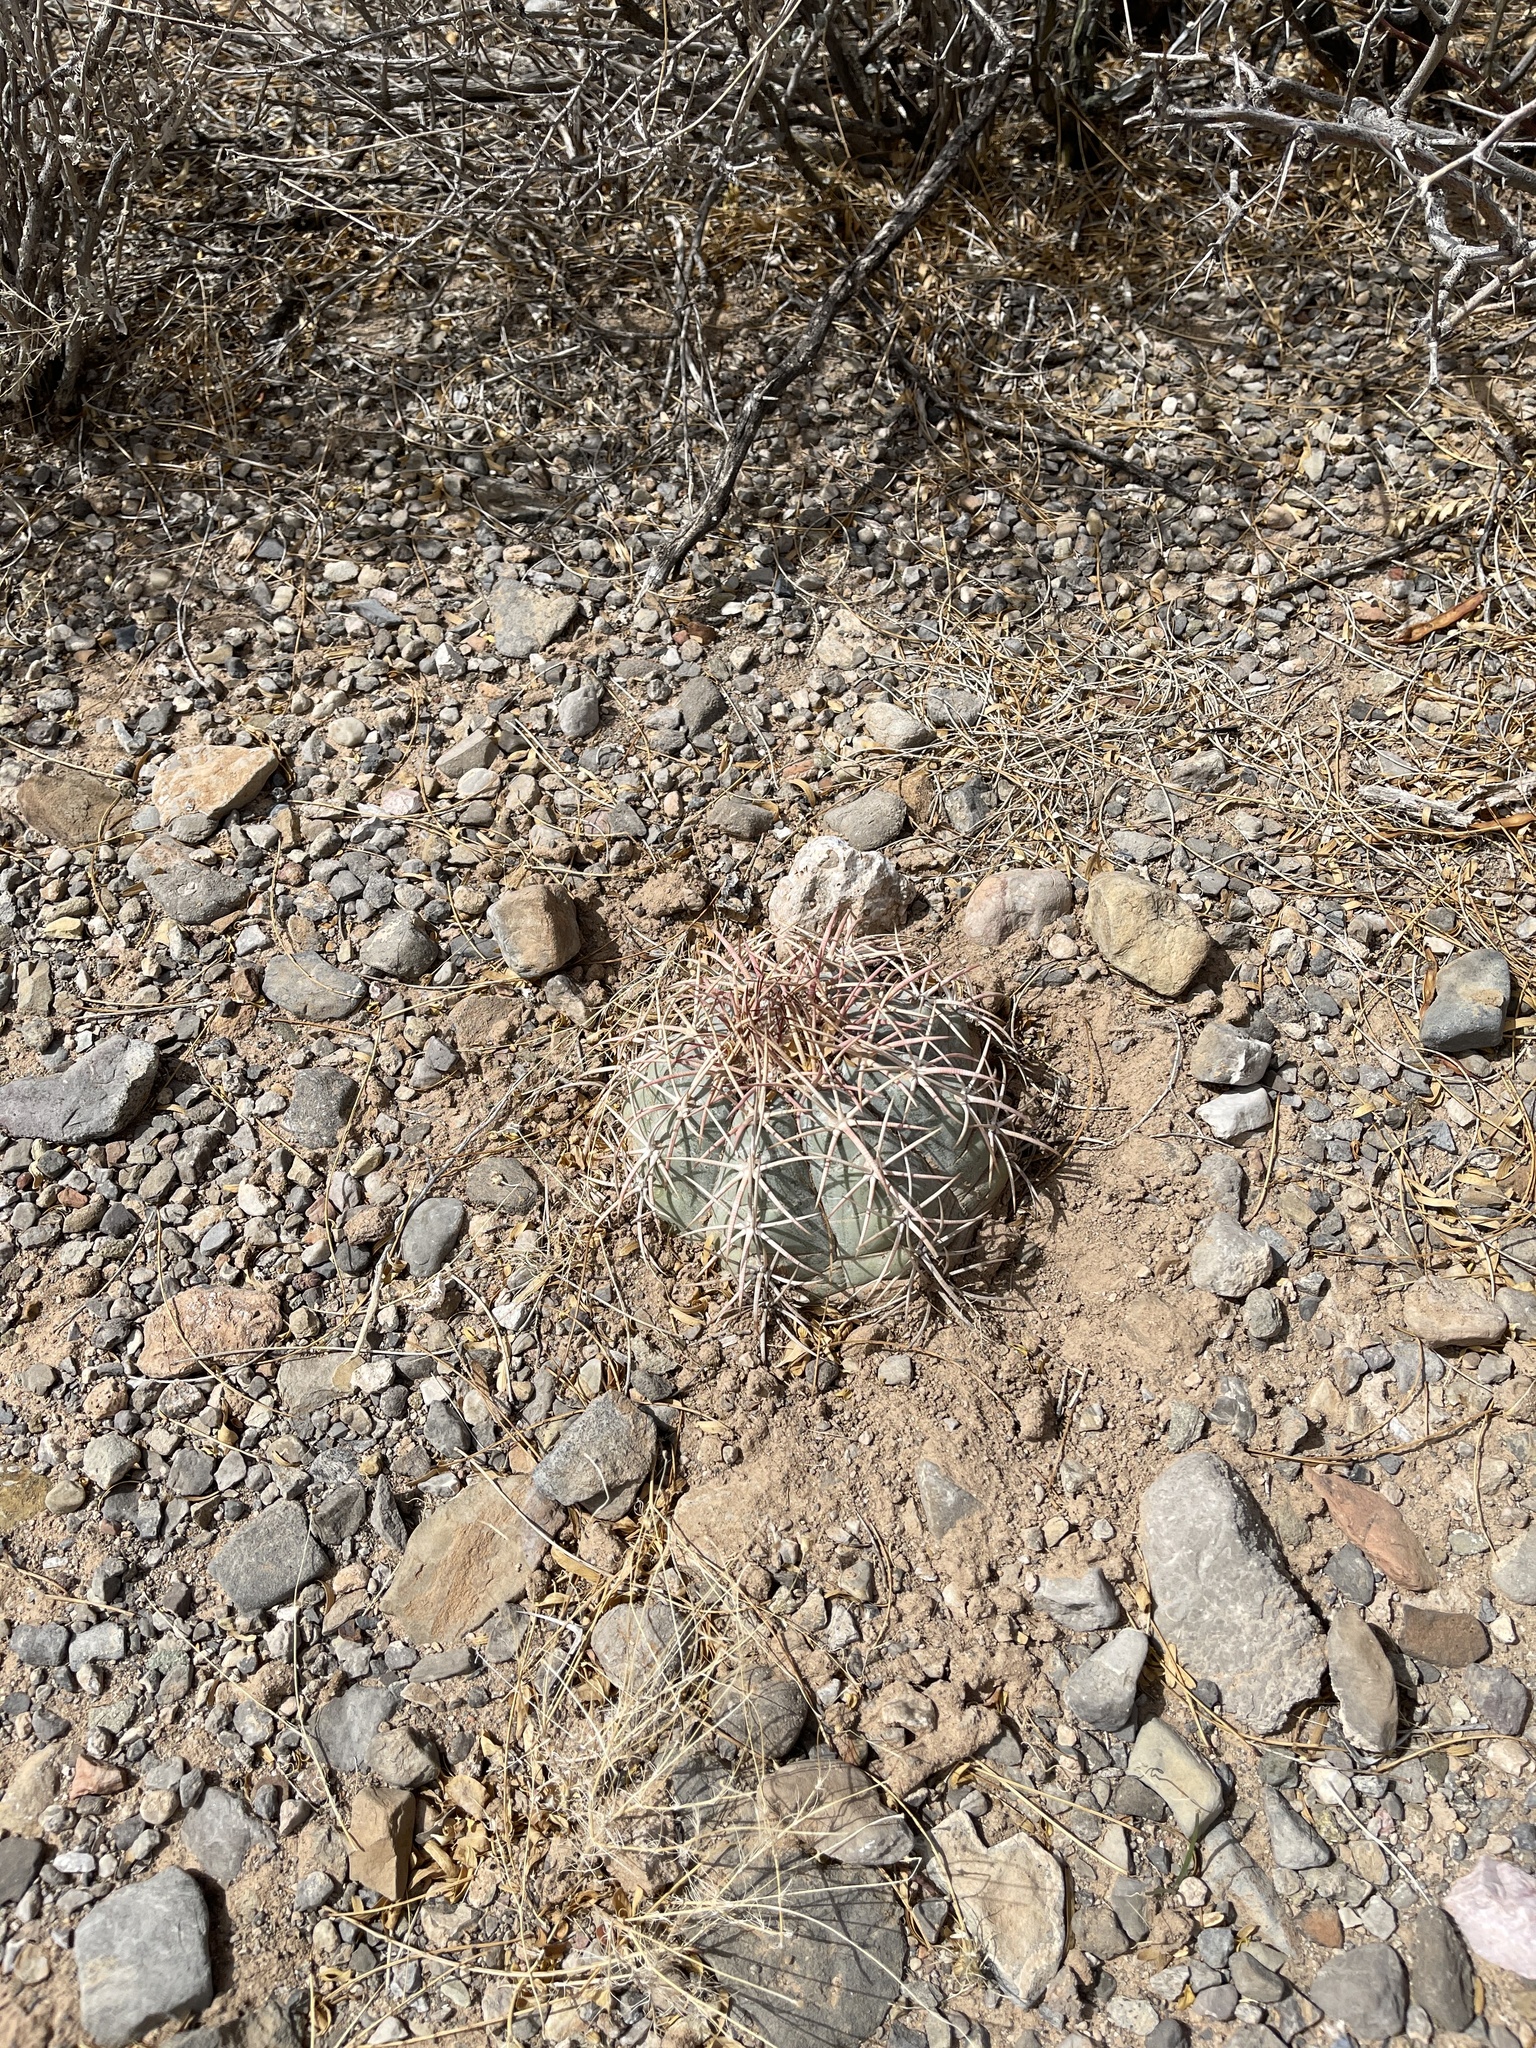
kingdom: Plantae
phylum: Tracheophyta
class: Magnoliopsida
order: Caryophyllales
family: Cactaceae
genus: Echinocactus
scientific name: Echinocactus horizonthalonius
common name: Devilshead
